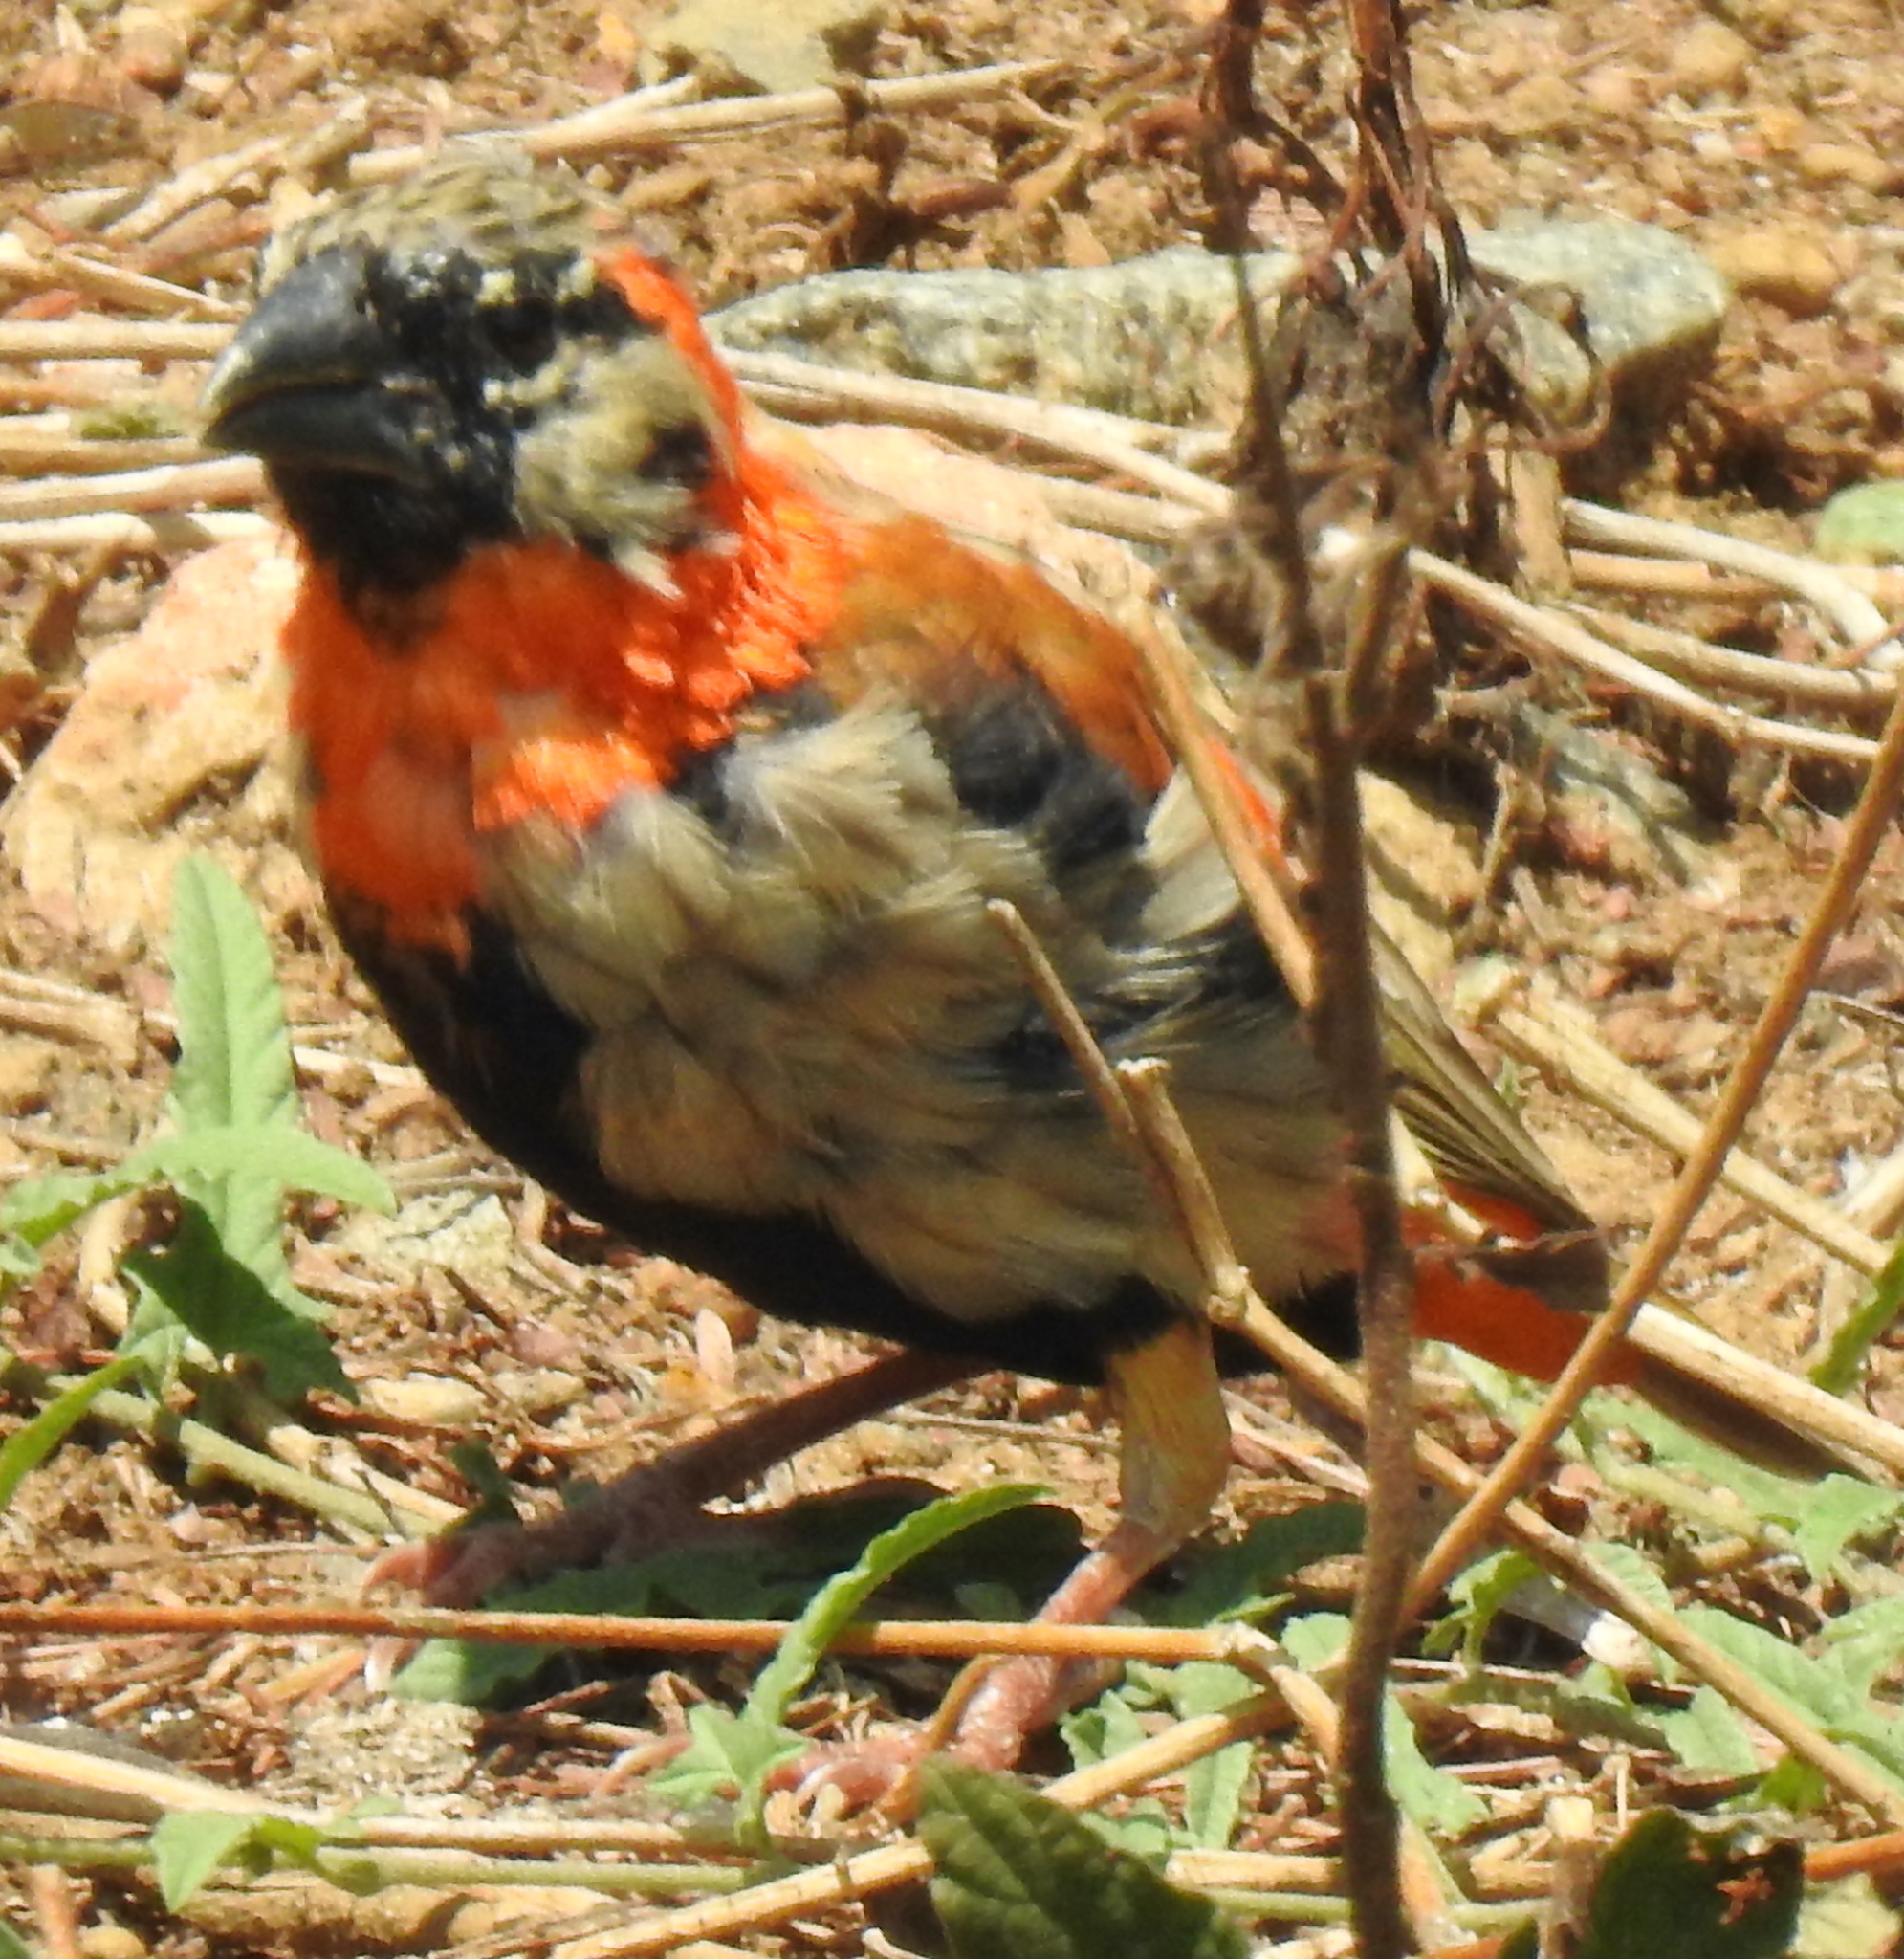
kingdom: Animalia
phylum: Chordata
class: Aves
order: Passeriformes
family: Ploceidae
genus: Euplectes
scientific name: Euplectes orix
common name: Southern red bishop
